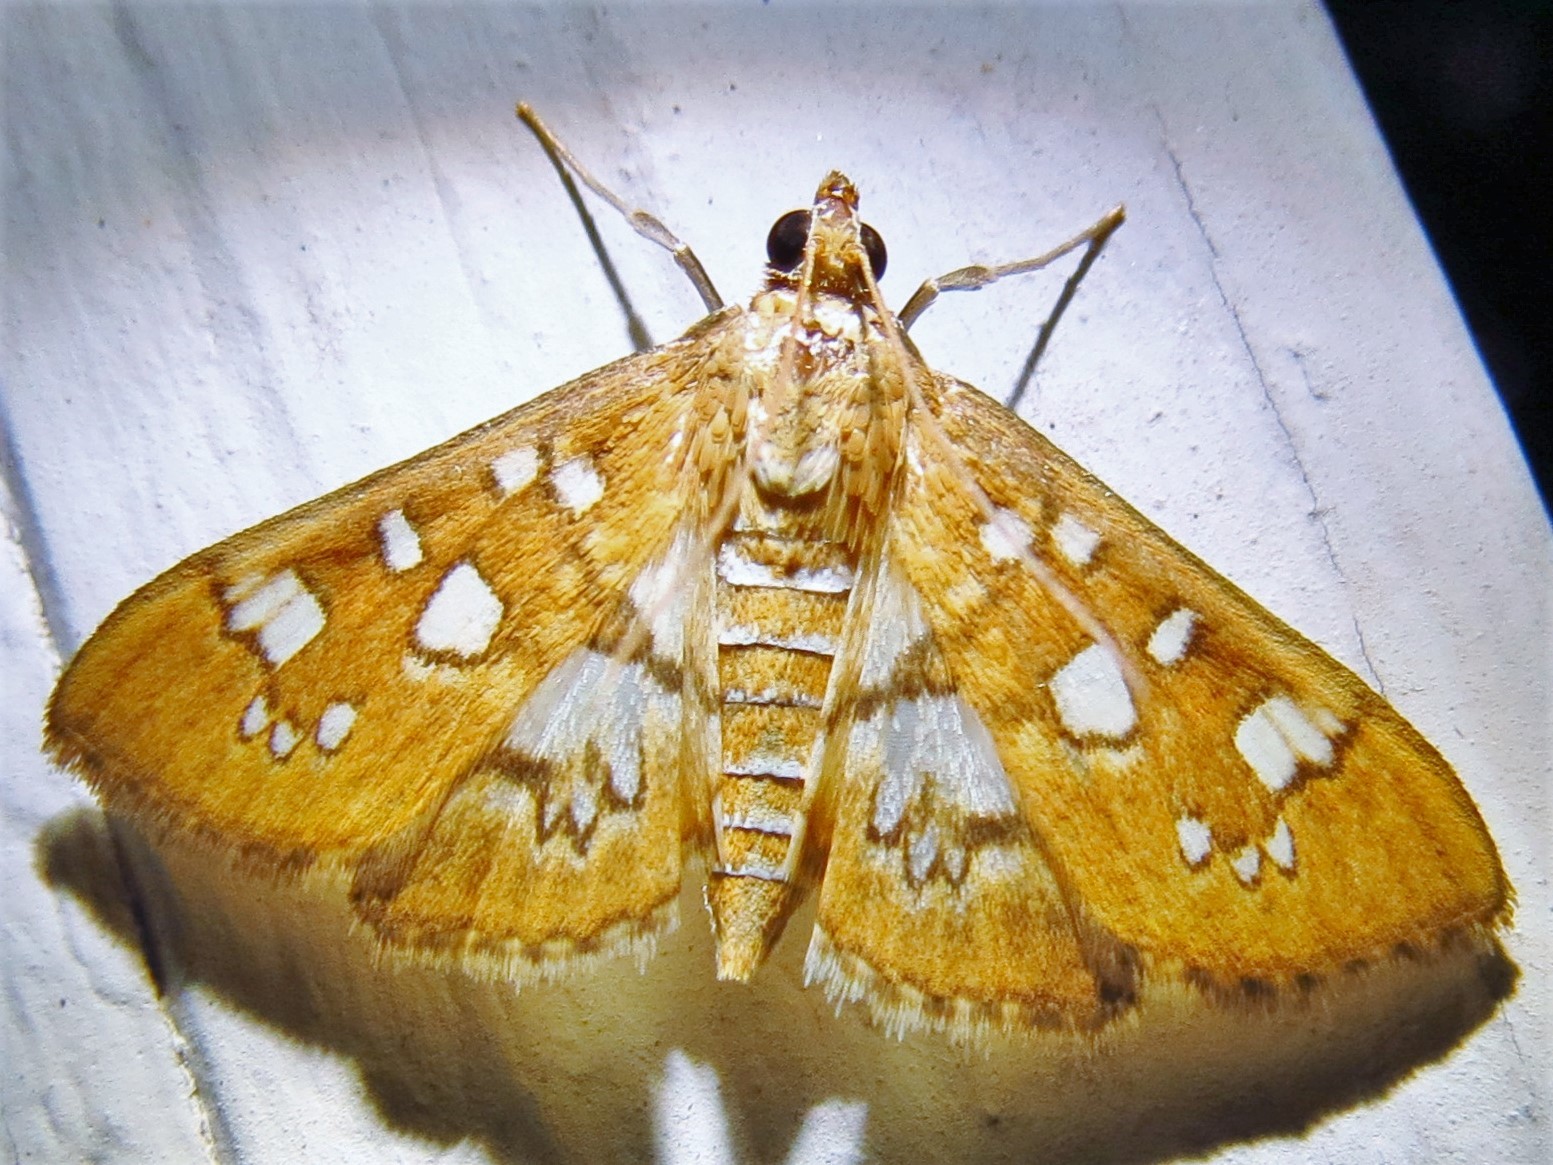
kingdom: Animalia
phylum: Arthropoda
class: Insecta
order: Lepidoptera
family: Crambidae
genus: Samea
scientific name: Samea baccatalis
